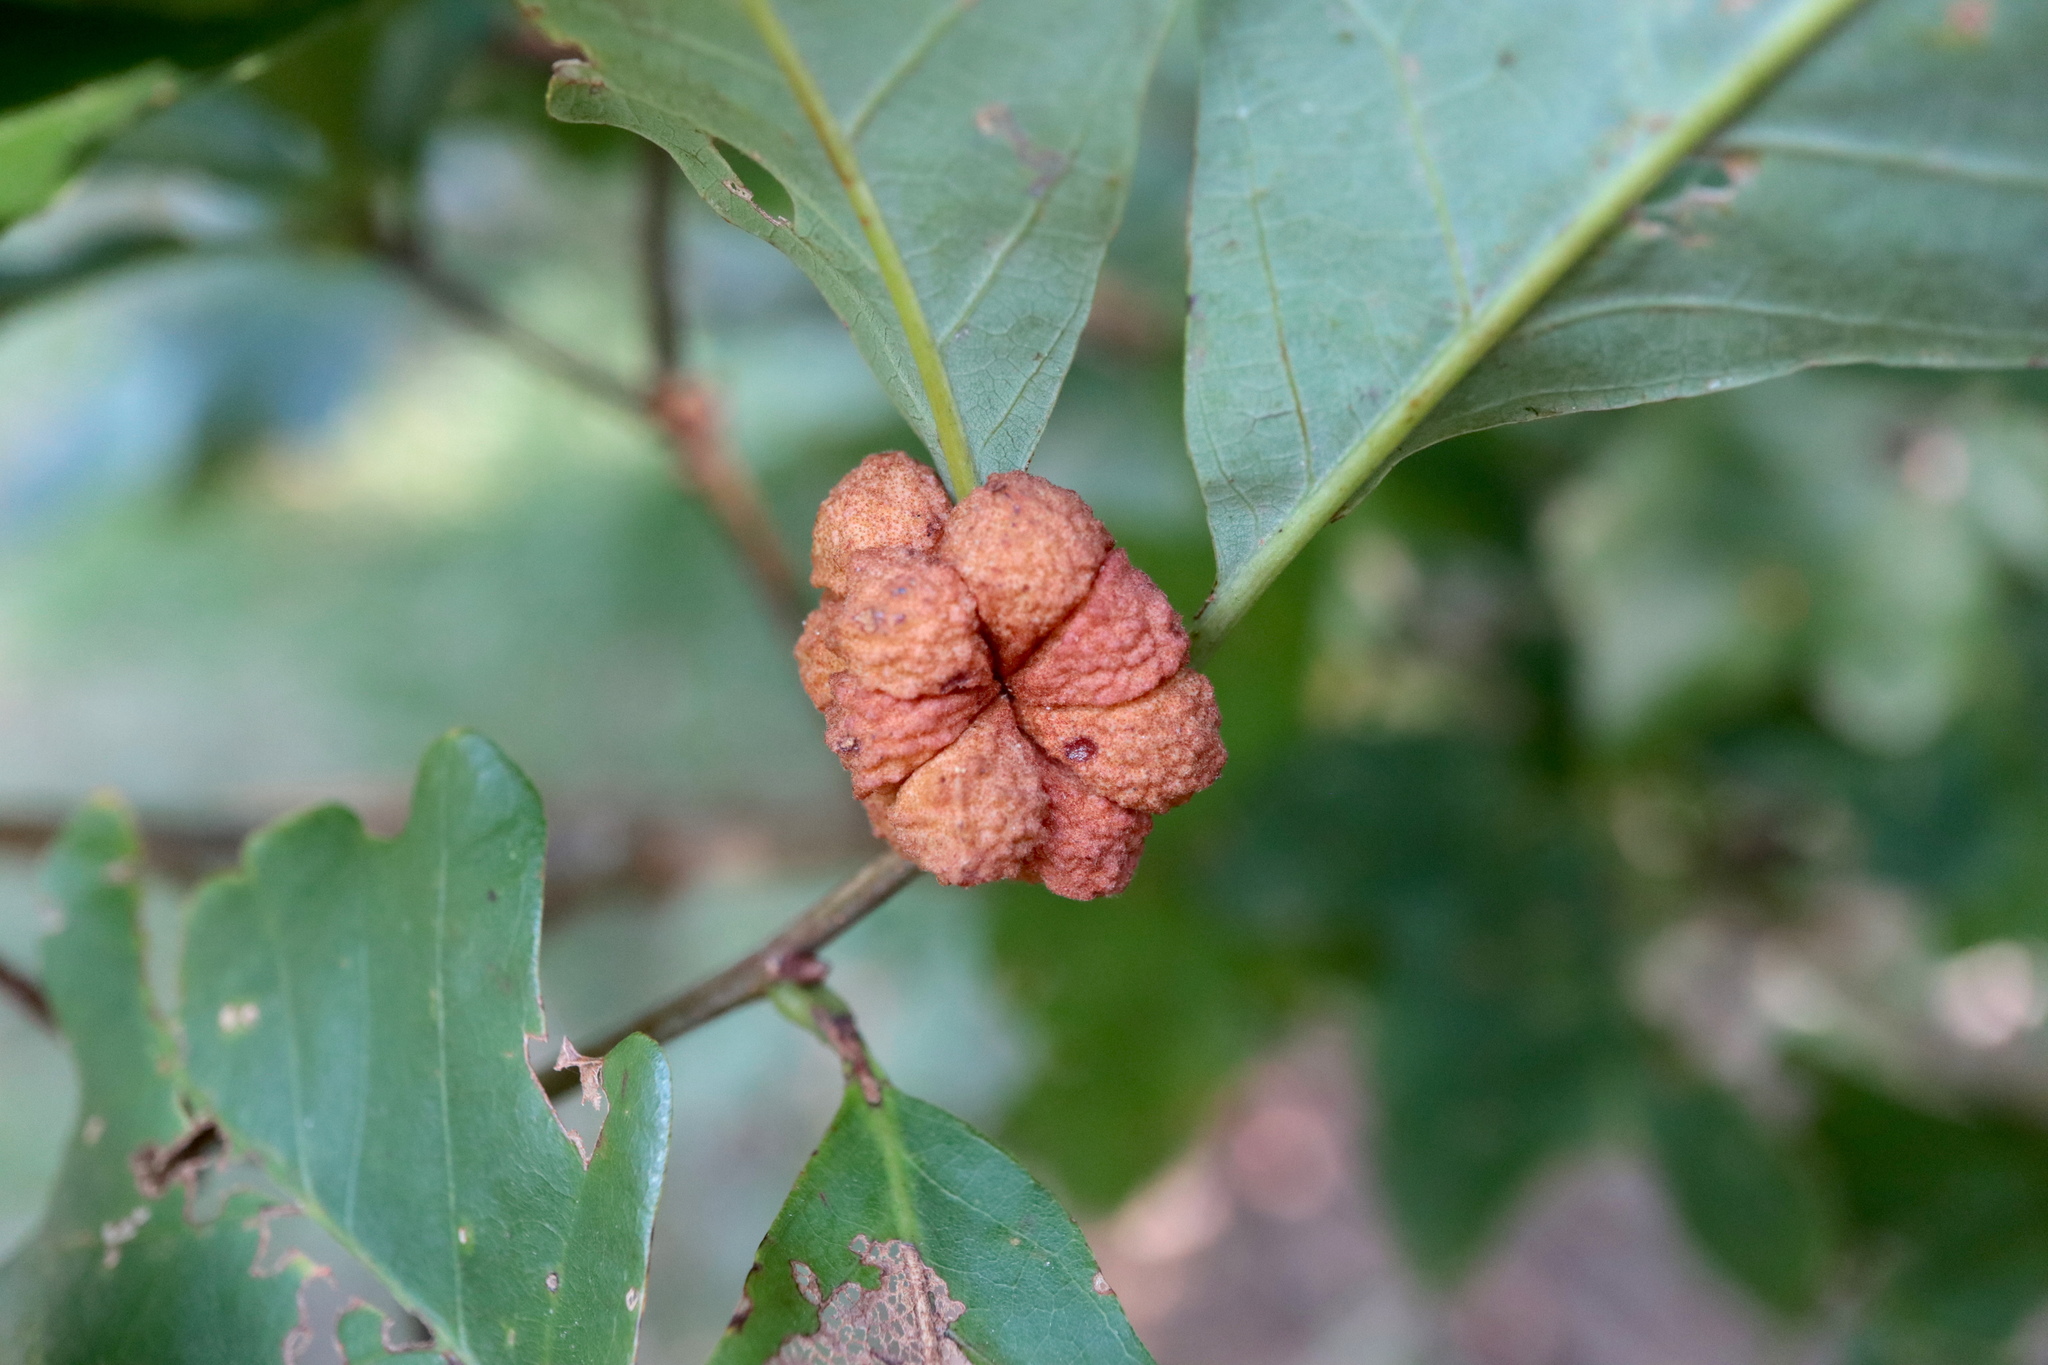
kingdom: Animalia
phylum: Arthropoda
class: Insecta
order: Hymenoptera
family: Cynipidae
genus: Andricus
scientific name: Andricus
